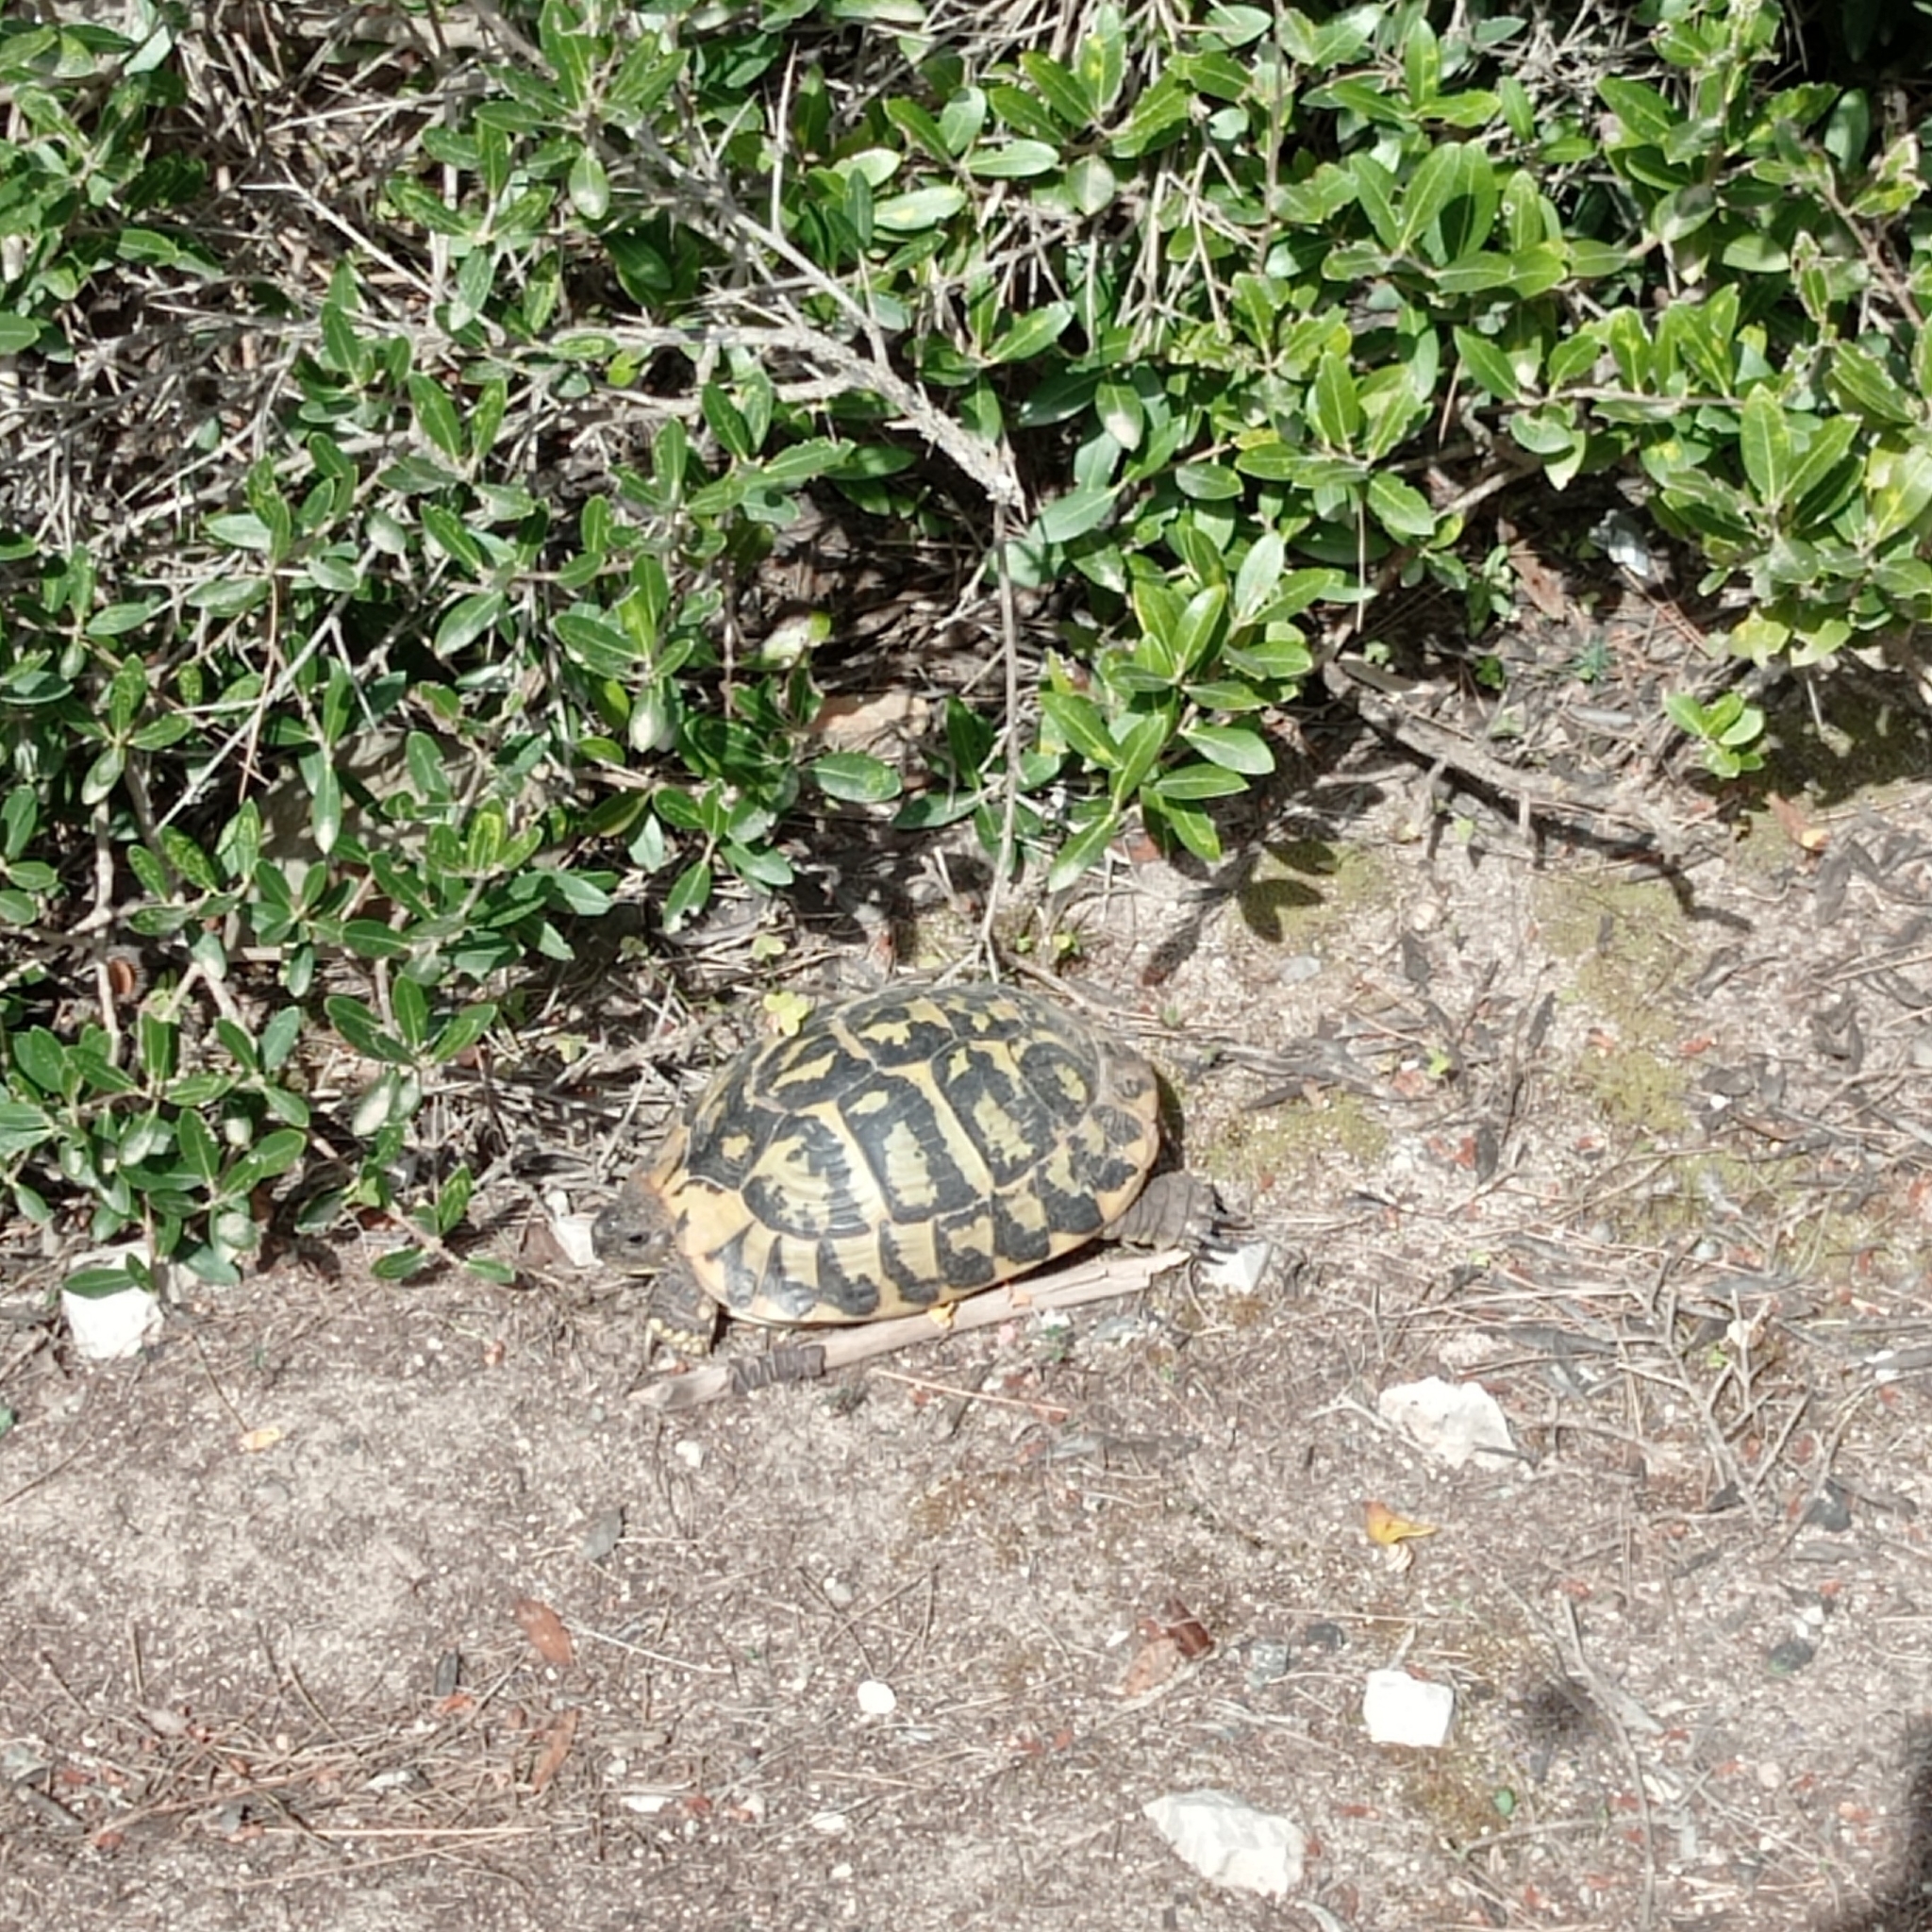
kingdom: Animalia
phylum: Chordata
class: Testudines
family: Testudinidae
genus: Testudo
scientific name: Testudo hermanni
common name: Hermann's tortoise
